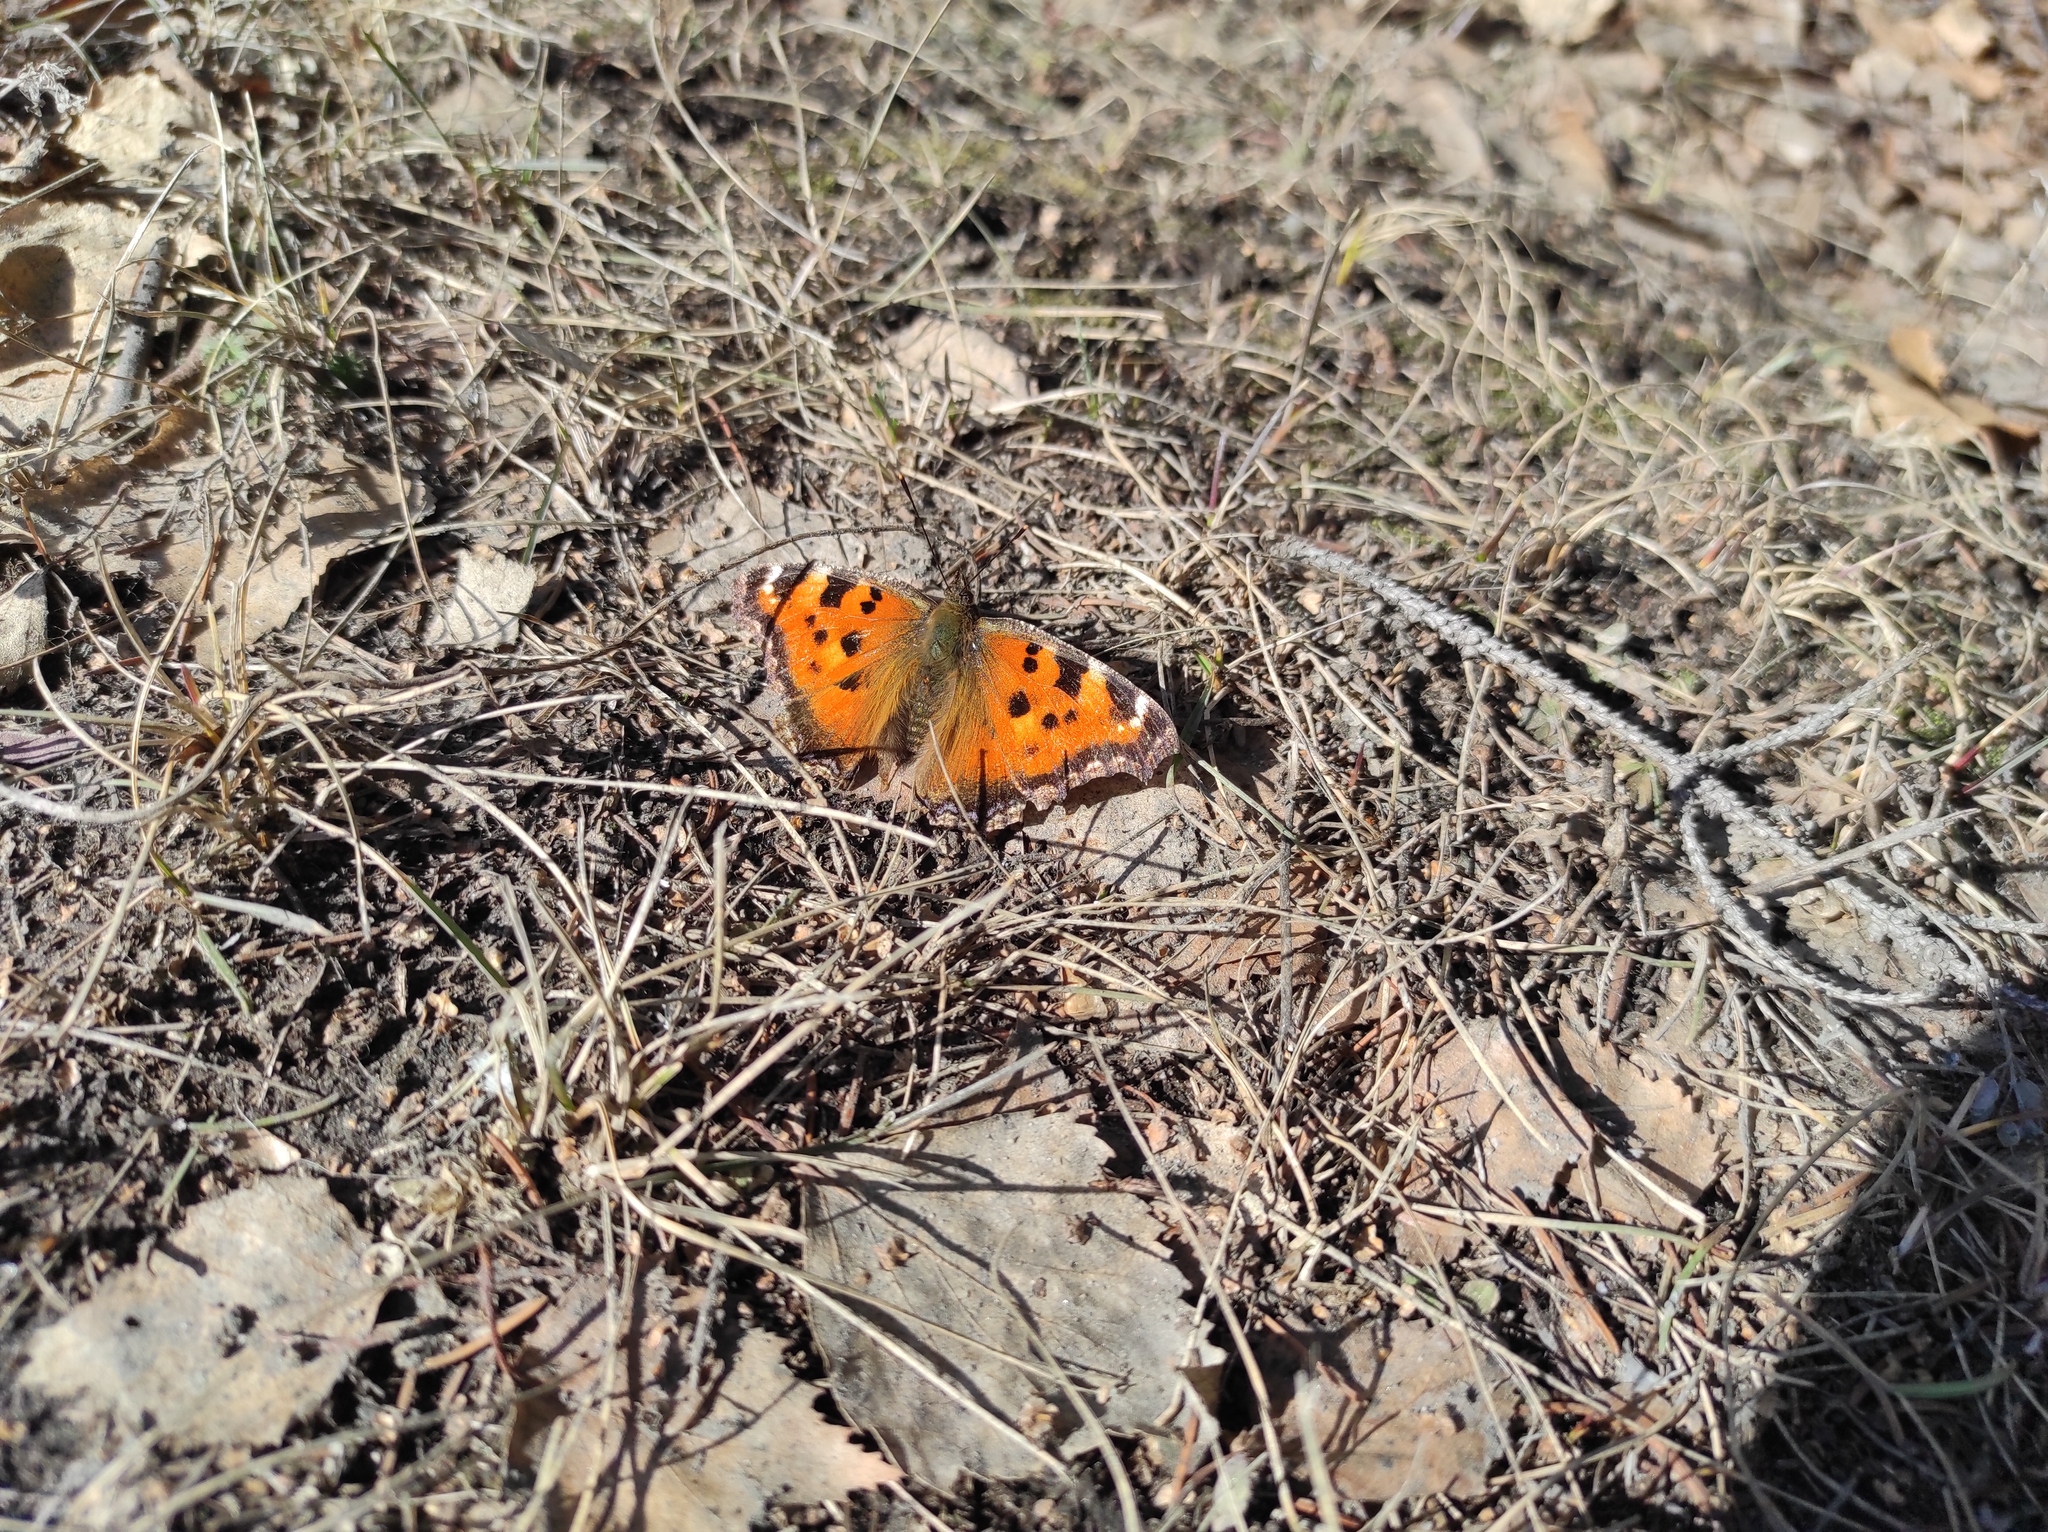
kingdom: Animalia
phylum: Arthropoda
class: Insecta
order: Lepidoptera
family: Nymphalidae
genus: Nymphalis
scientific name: Nymphalis xanthomelas
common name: Scarce tortoiseshell
